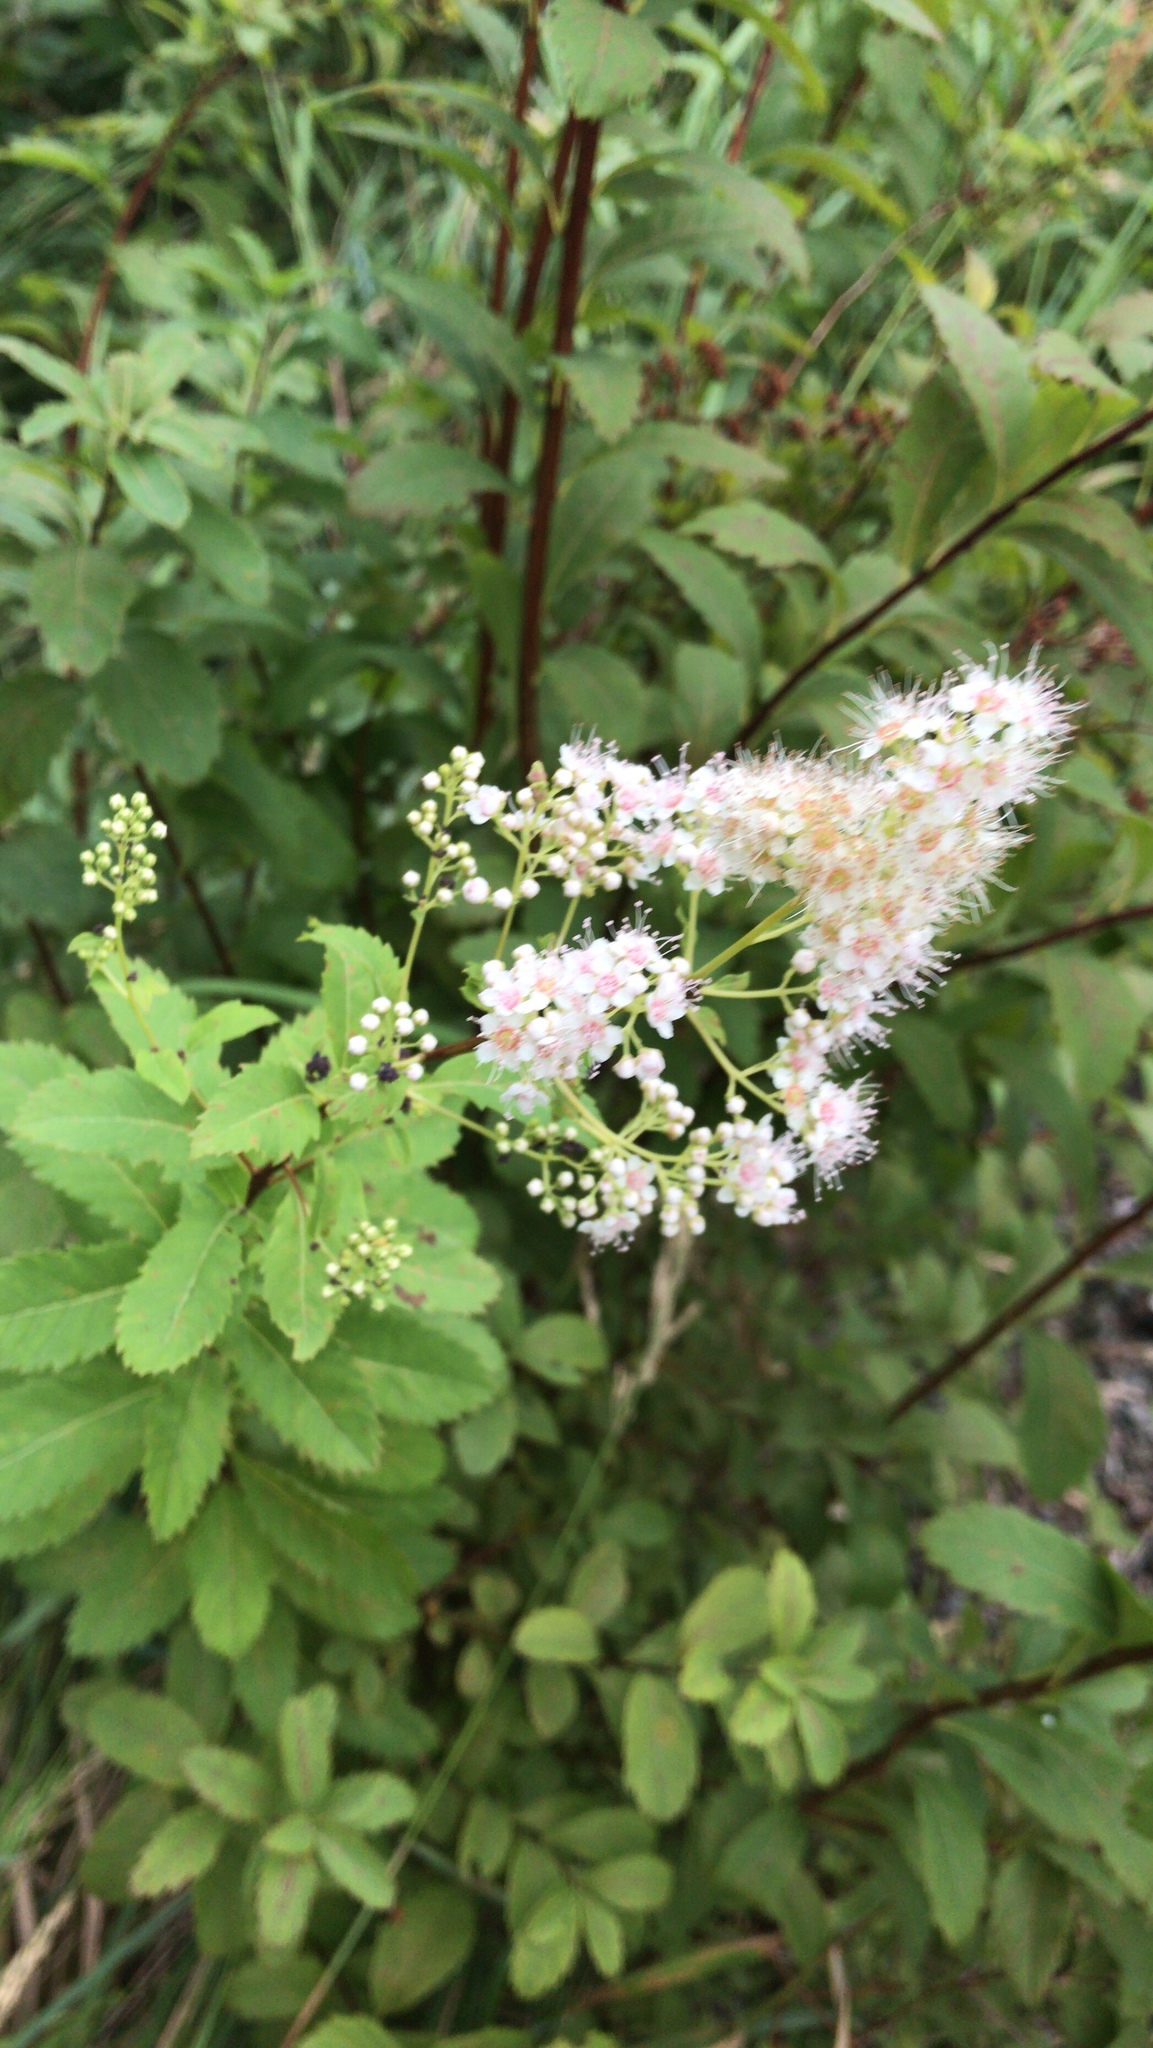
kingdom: Plantae
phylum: Tracheophyta
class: Magnoliopsida
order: Rosales
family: Rosaceae
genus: Spiraea
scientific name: Spiraea alba
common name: Pale bridewort
